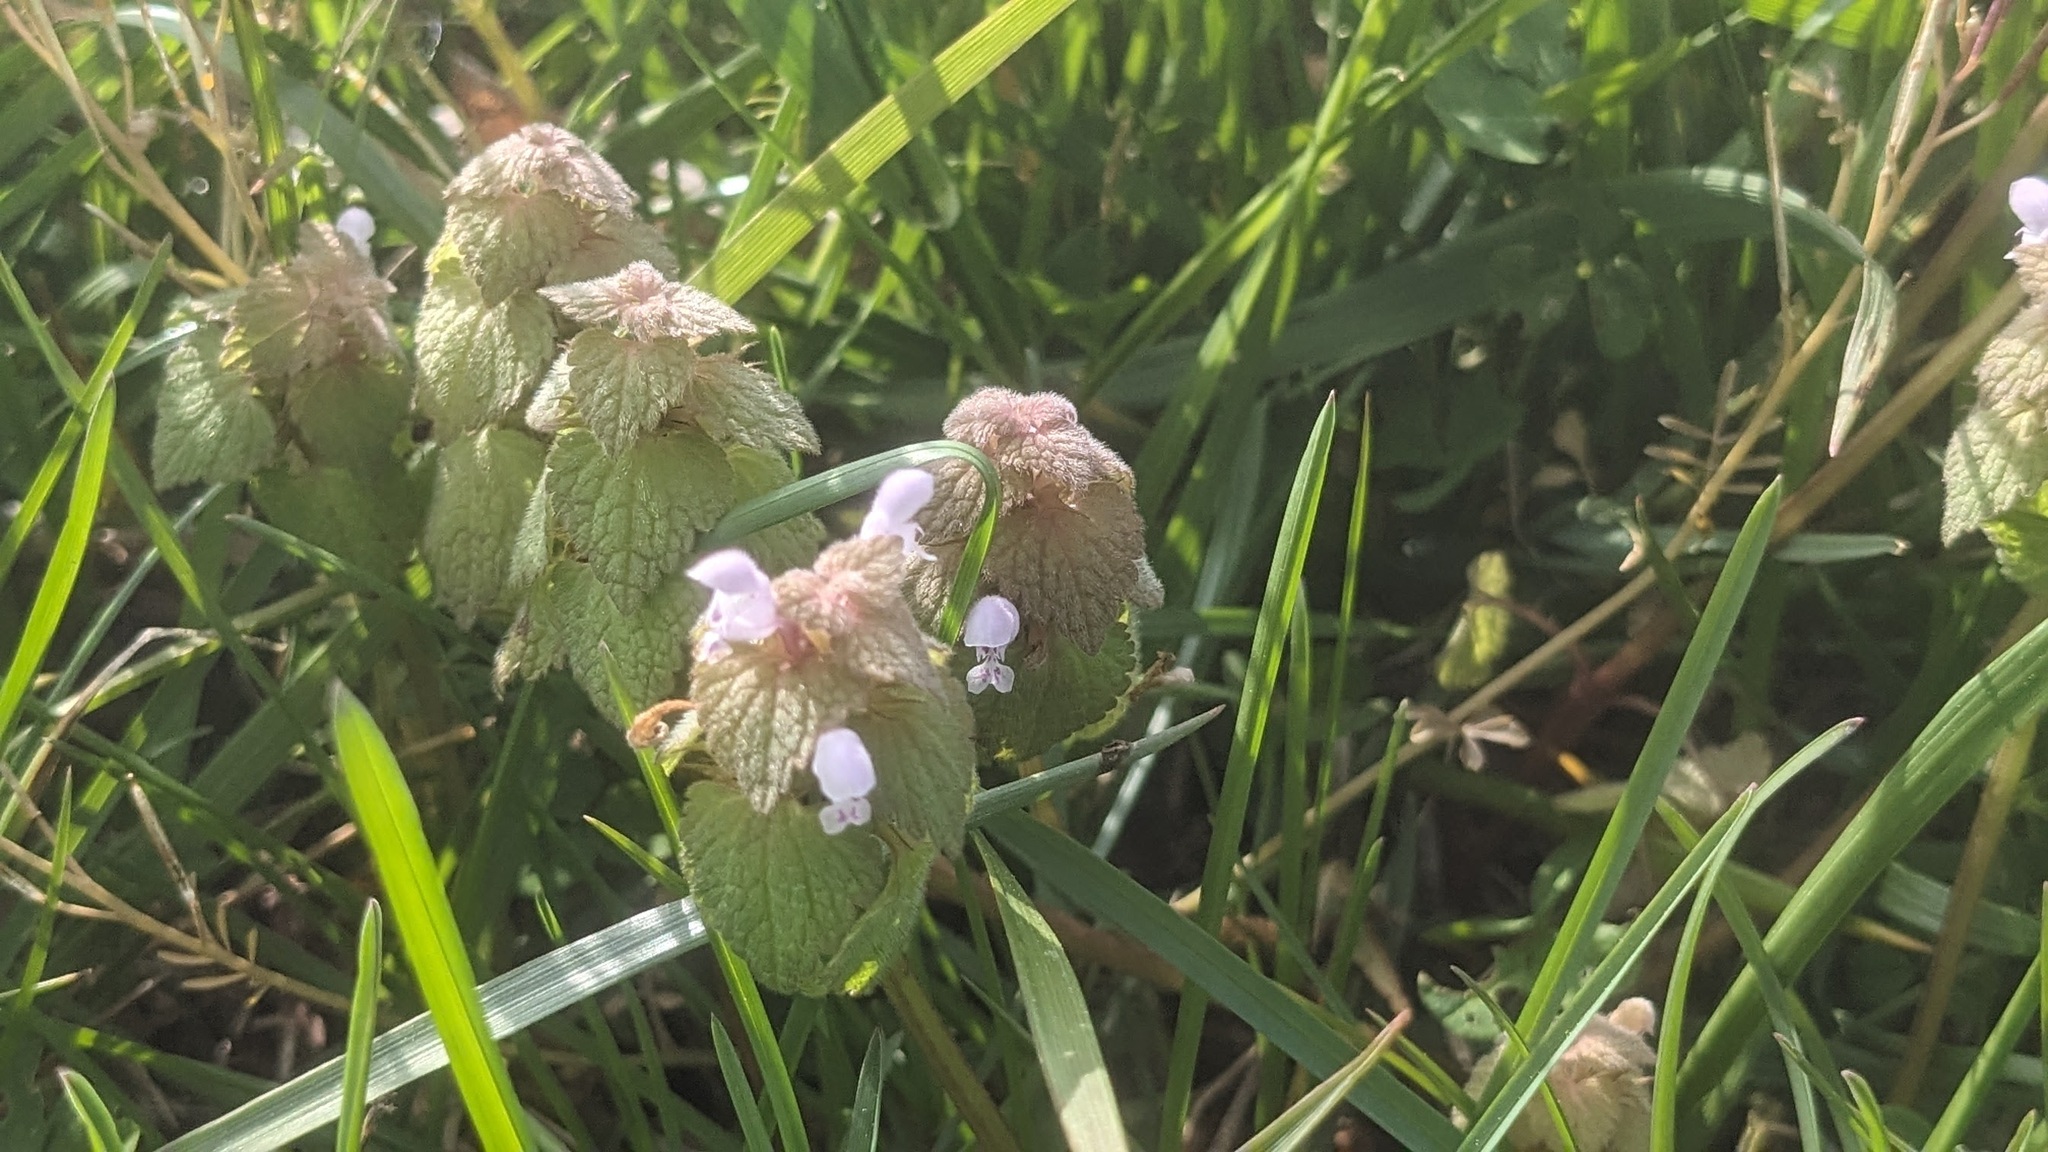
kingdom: Plantae
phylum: Tracheophyta
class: Magnoliopsida
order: Lamiales
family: Lamiaceae
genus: Lamium
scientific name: Lamium purpureum
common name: Red dead-nettle
